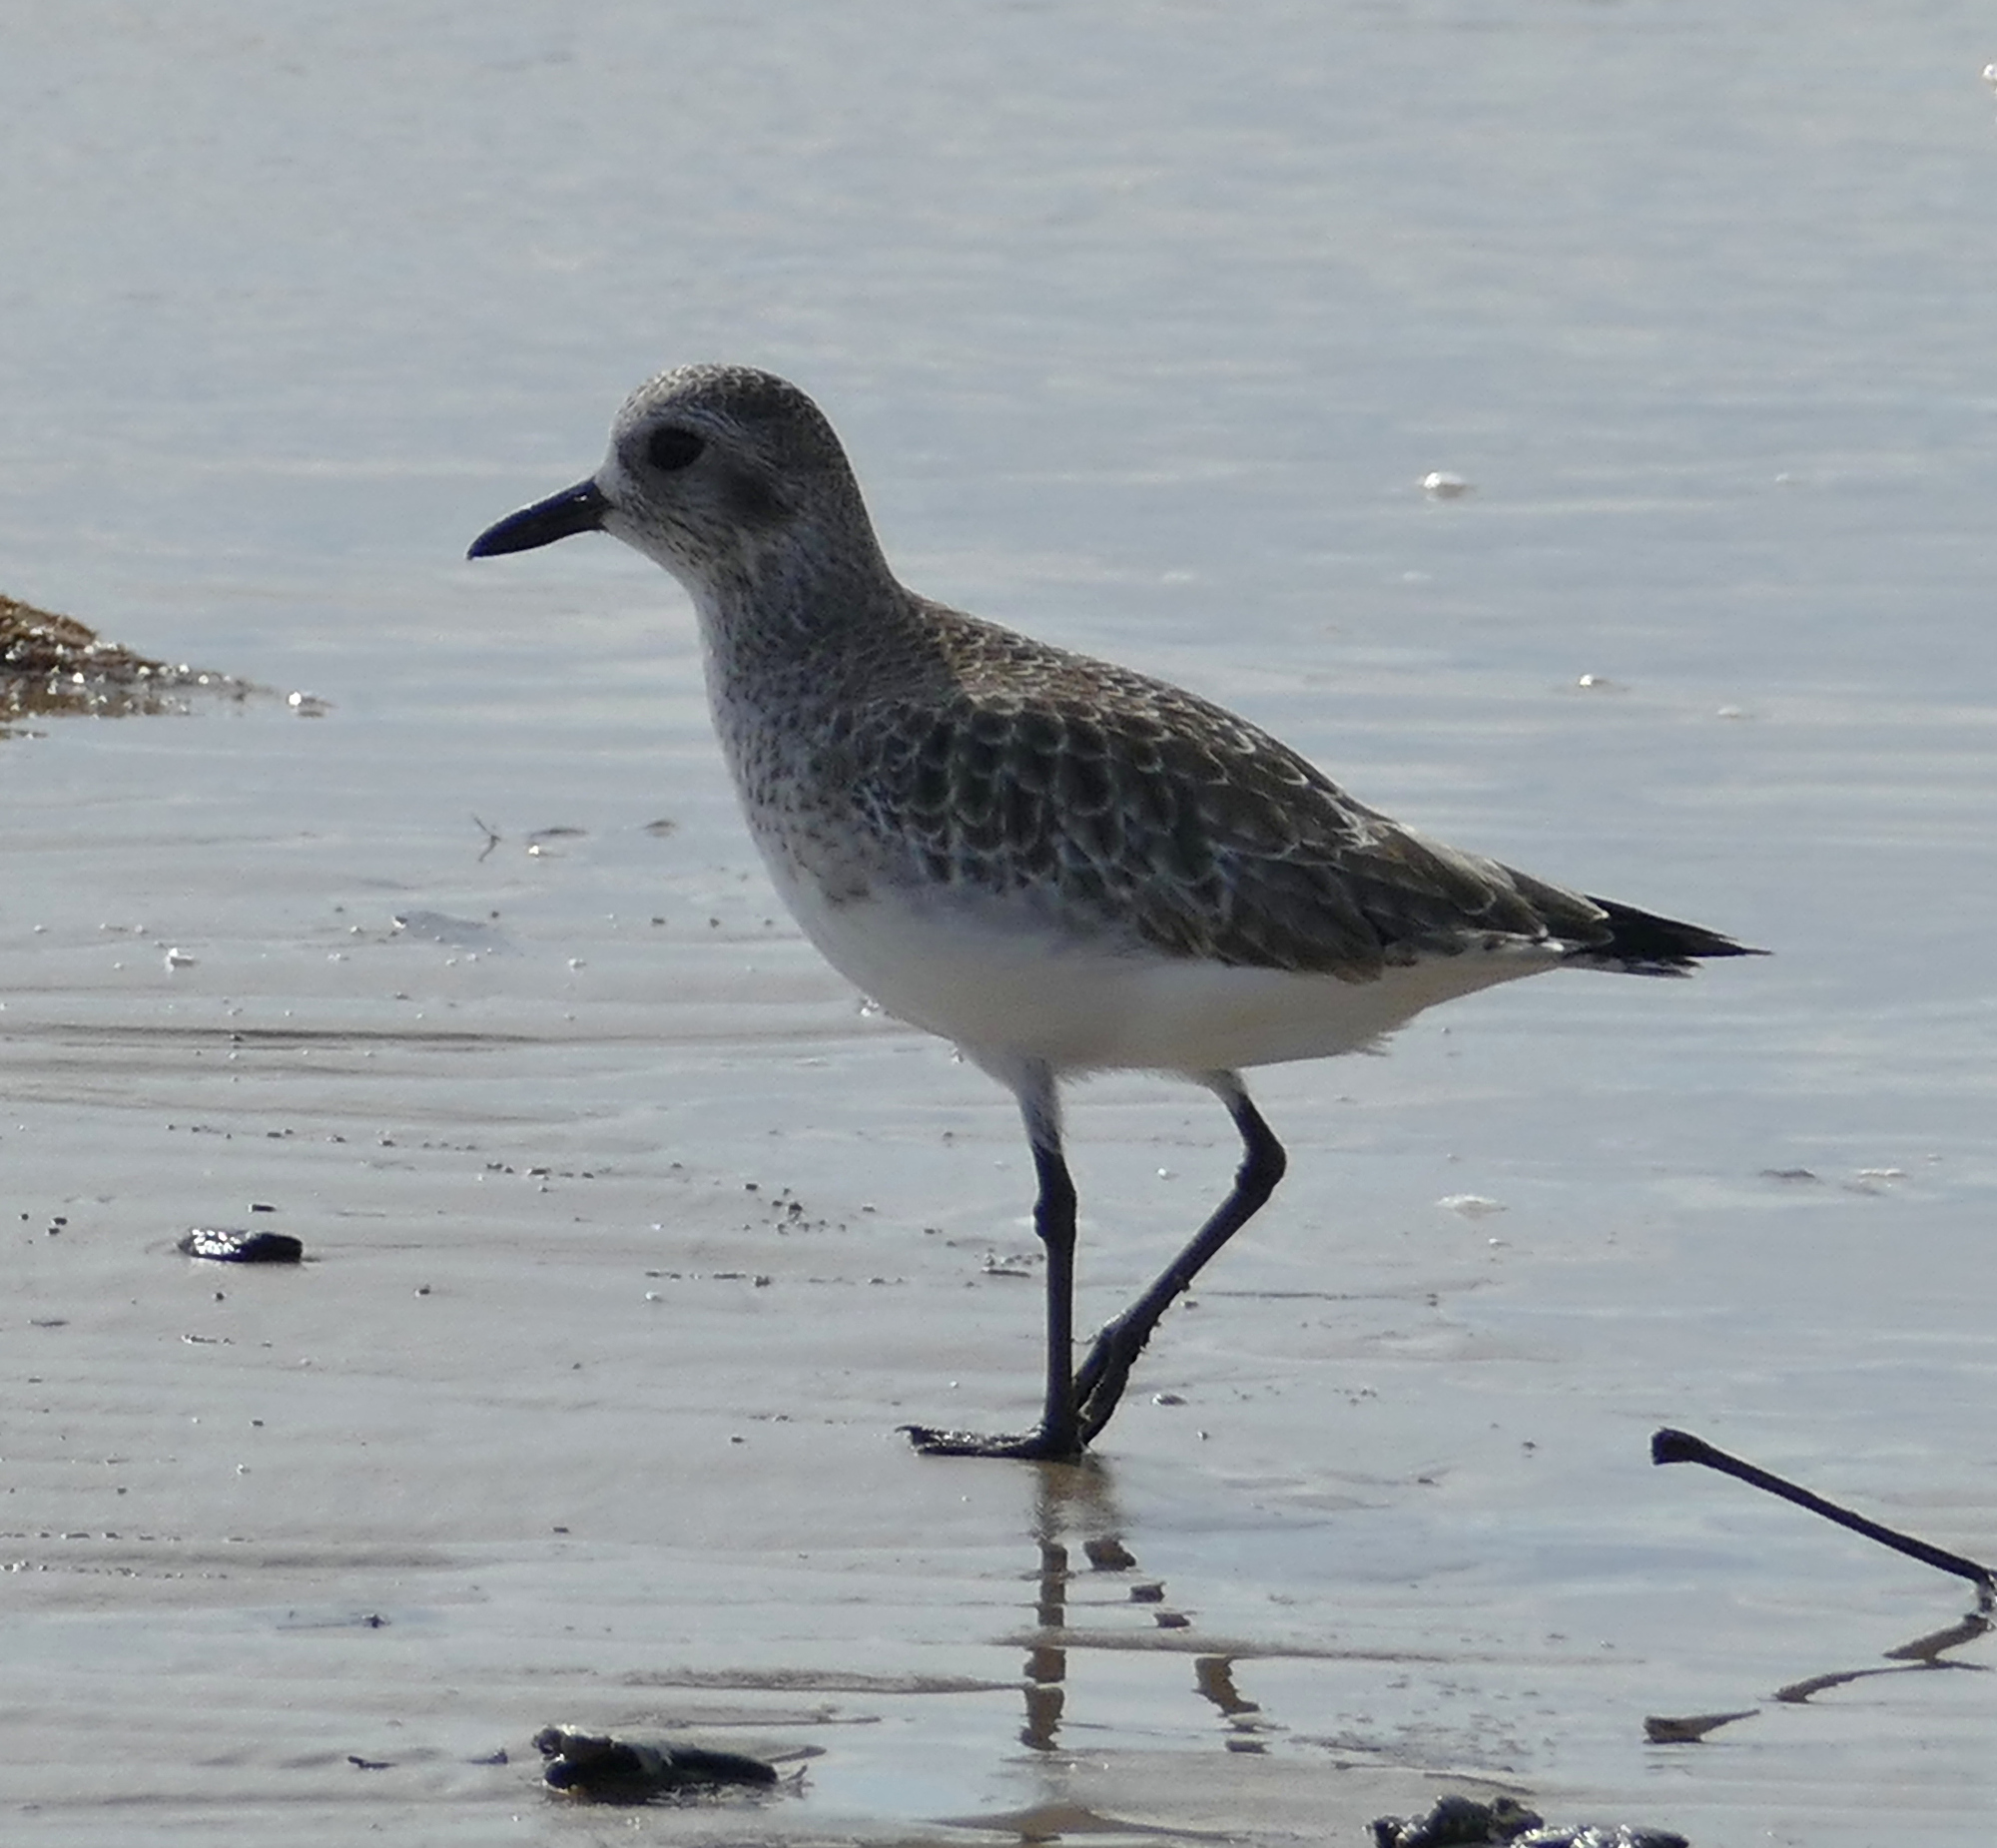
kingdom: Animalia
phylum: Chordata
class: Aves
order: Charadriiformes
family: Charadriidae
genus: Pluvialis
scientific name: Pluvialis squatarola
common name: Grey plover
